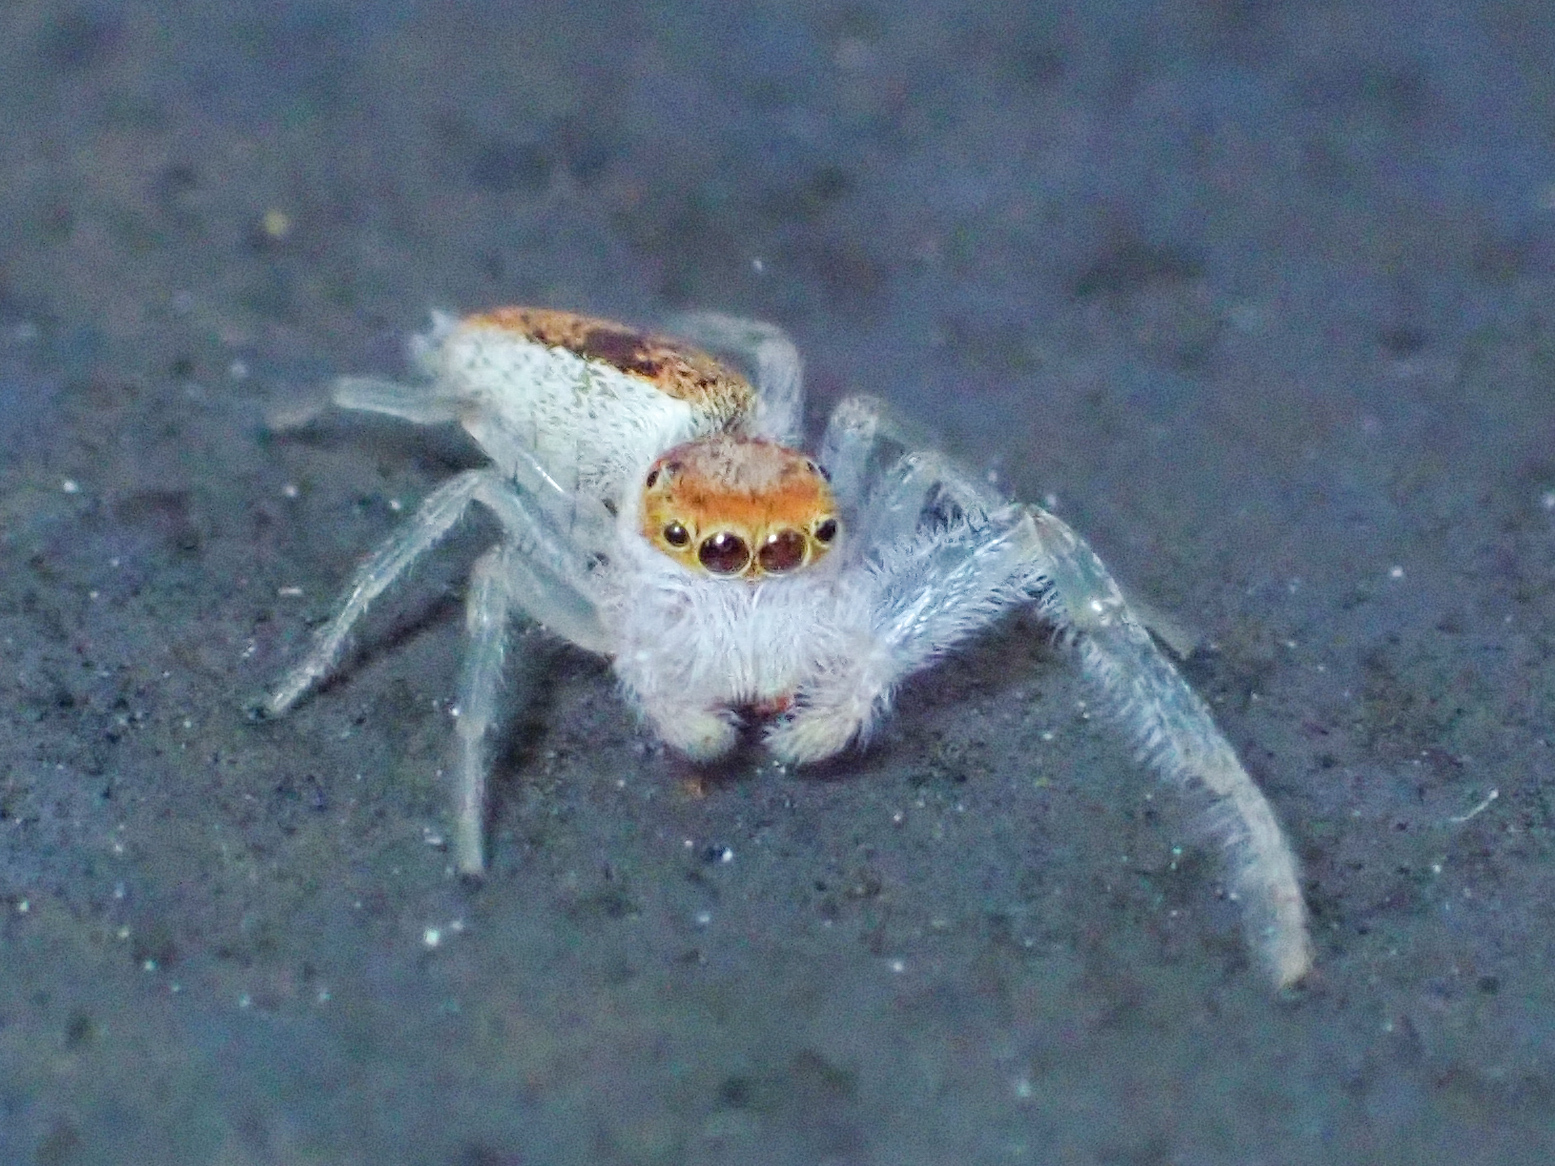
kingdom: Animalia
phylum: Arthropoda
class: Arachnida
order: Araneae
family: Salticidae
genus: Hentzia
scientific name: Hentzia mitrata
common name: White-jawed jumping spider
